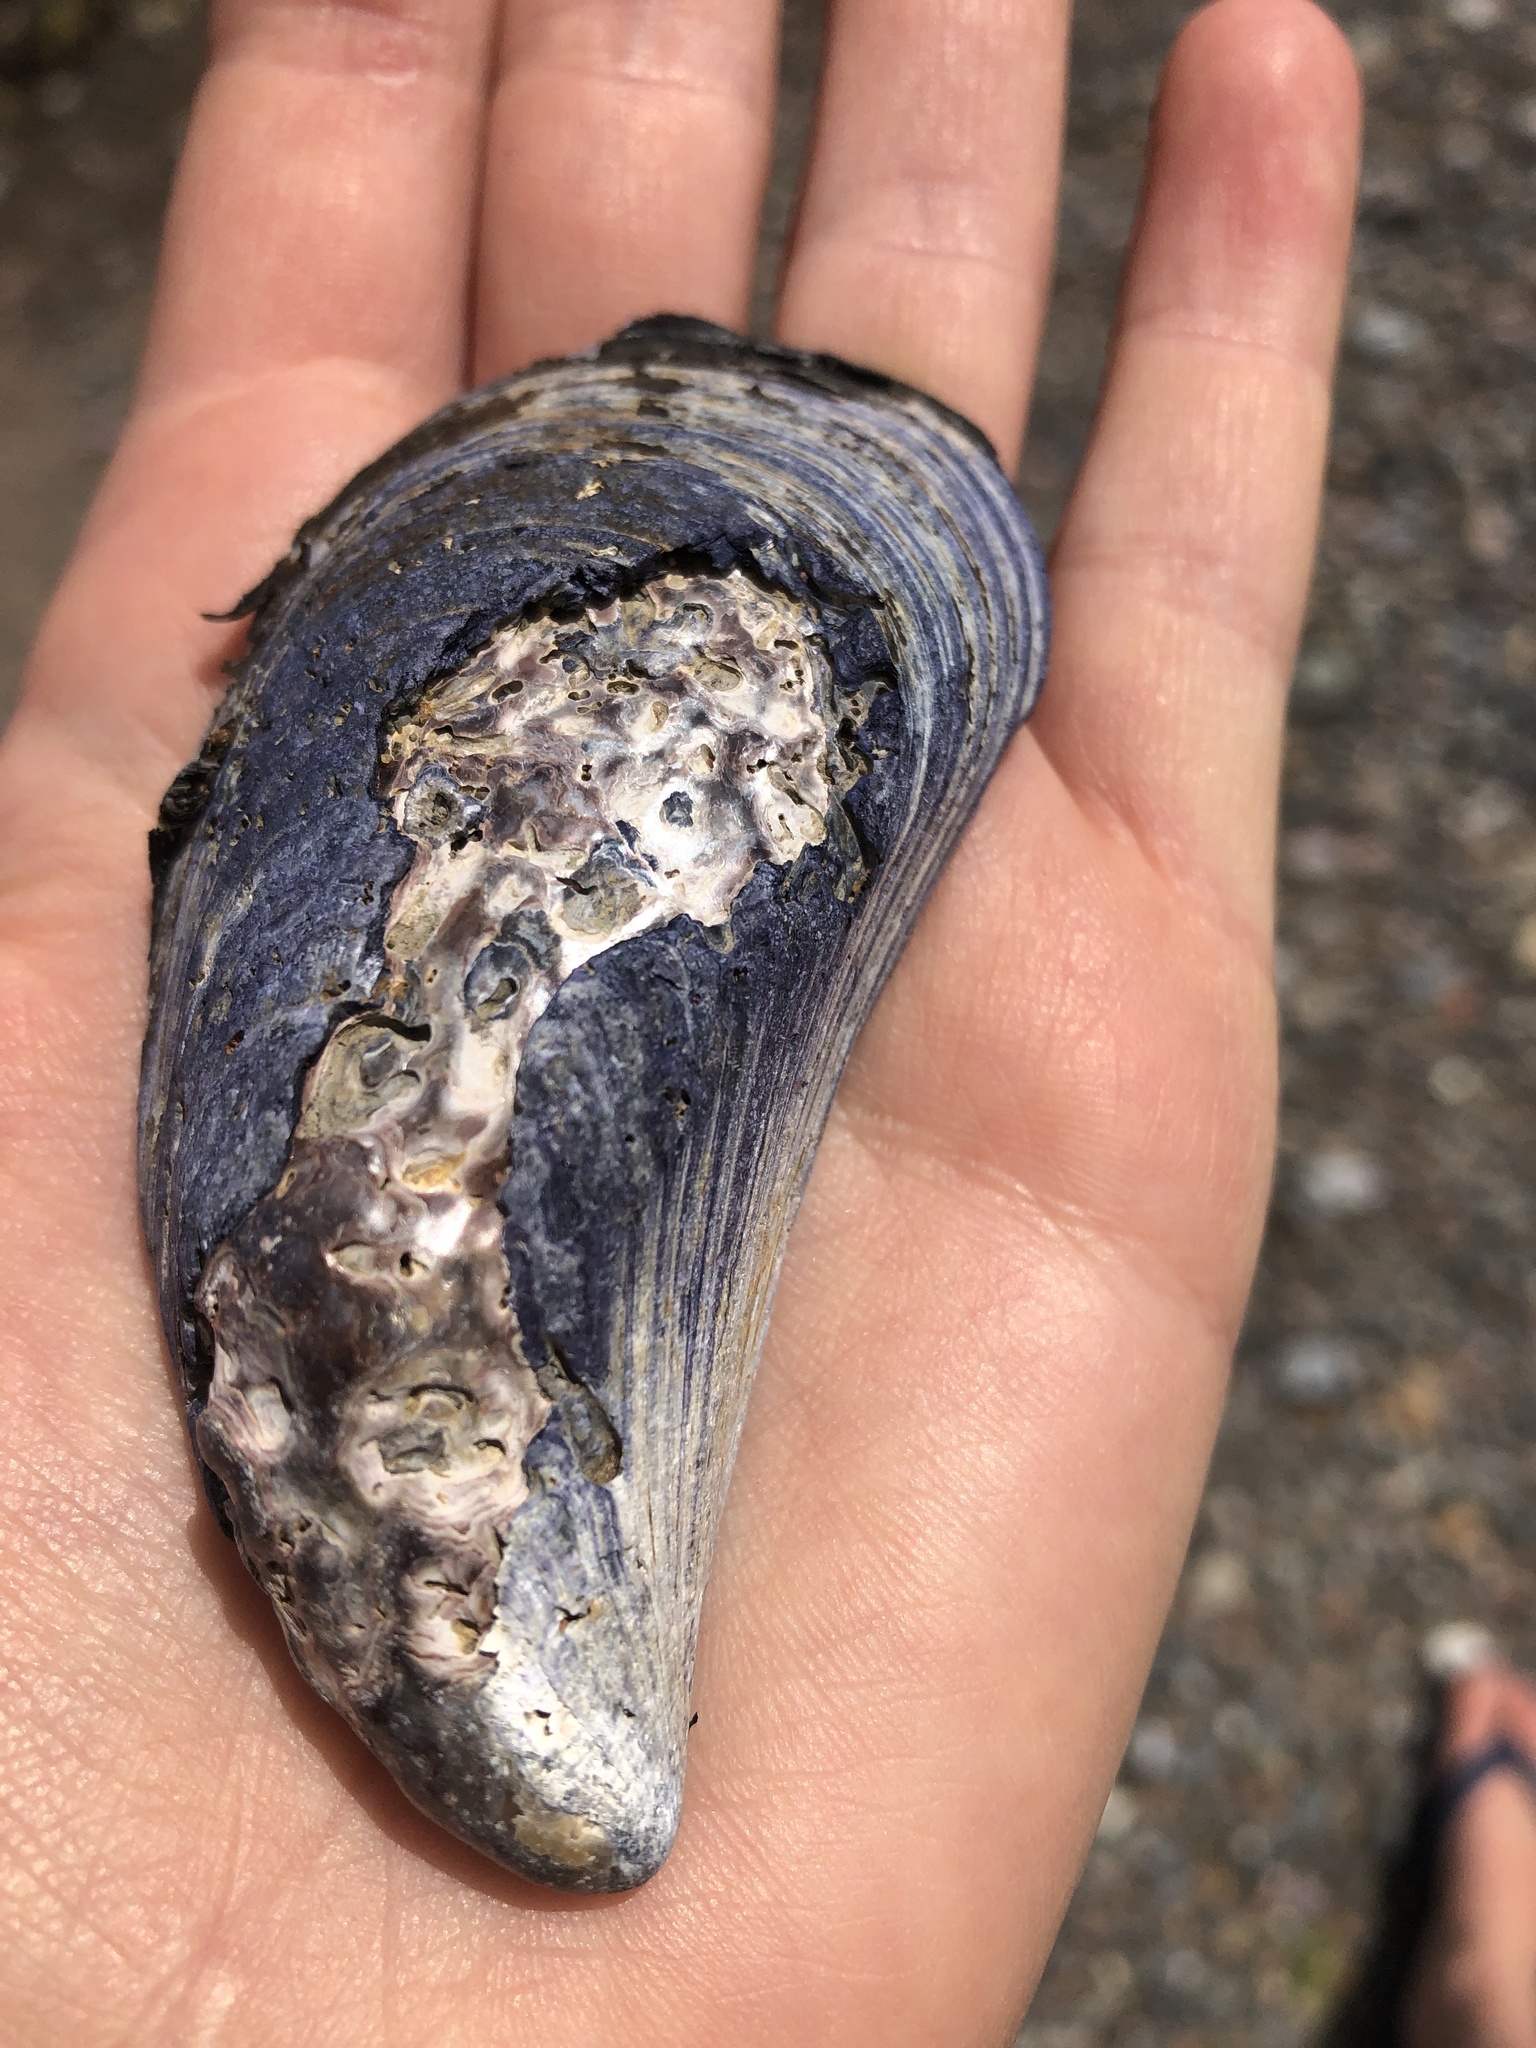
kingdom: Animalia
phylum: Mollusca
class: Bivalvia
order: Mytilida
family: Mytilidae
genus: Mytilus
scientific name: Mytilus edulis
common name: Blue mussel
